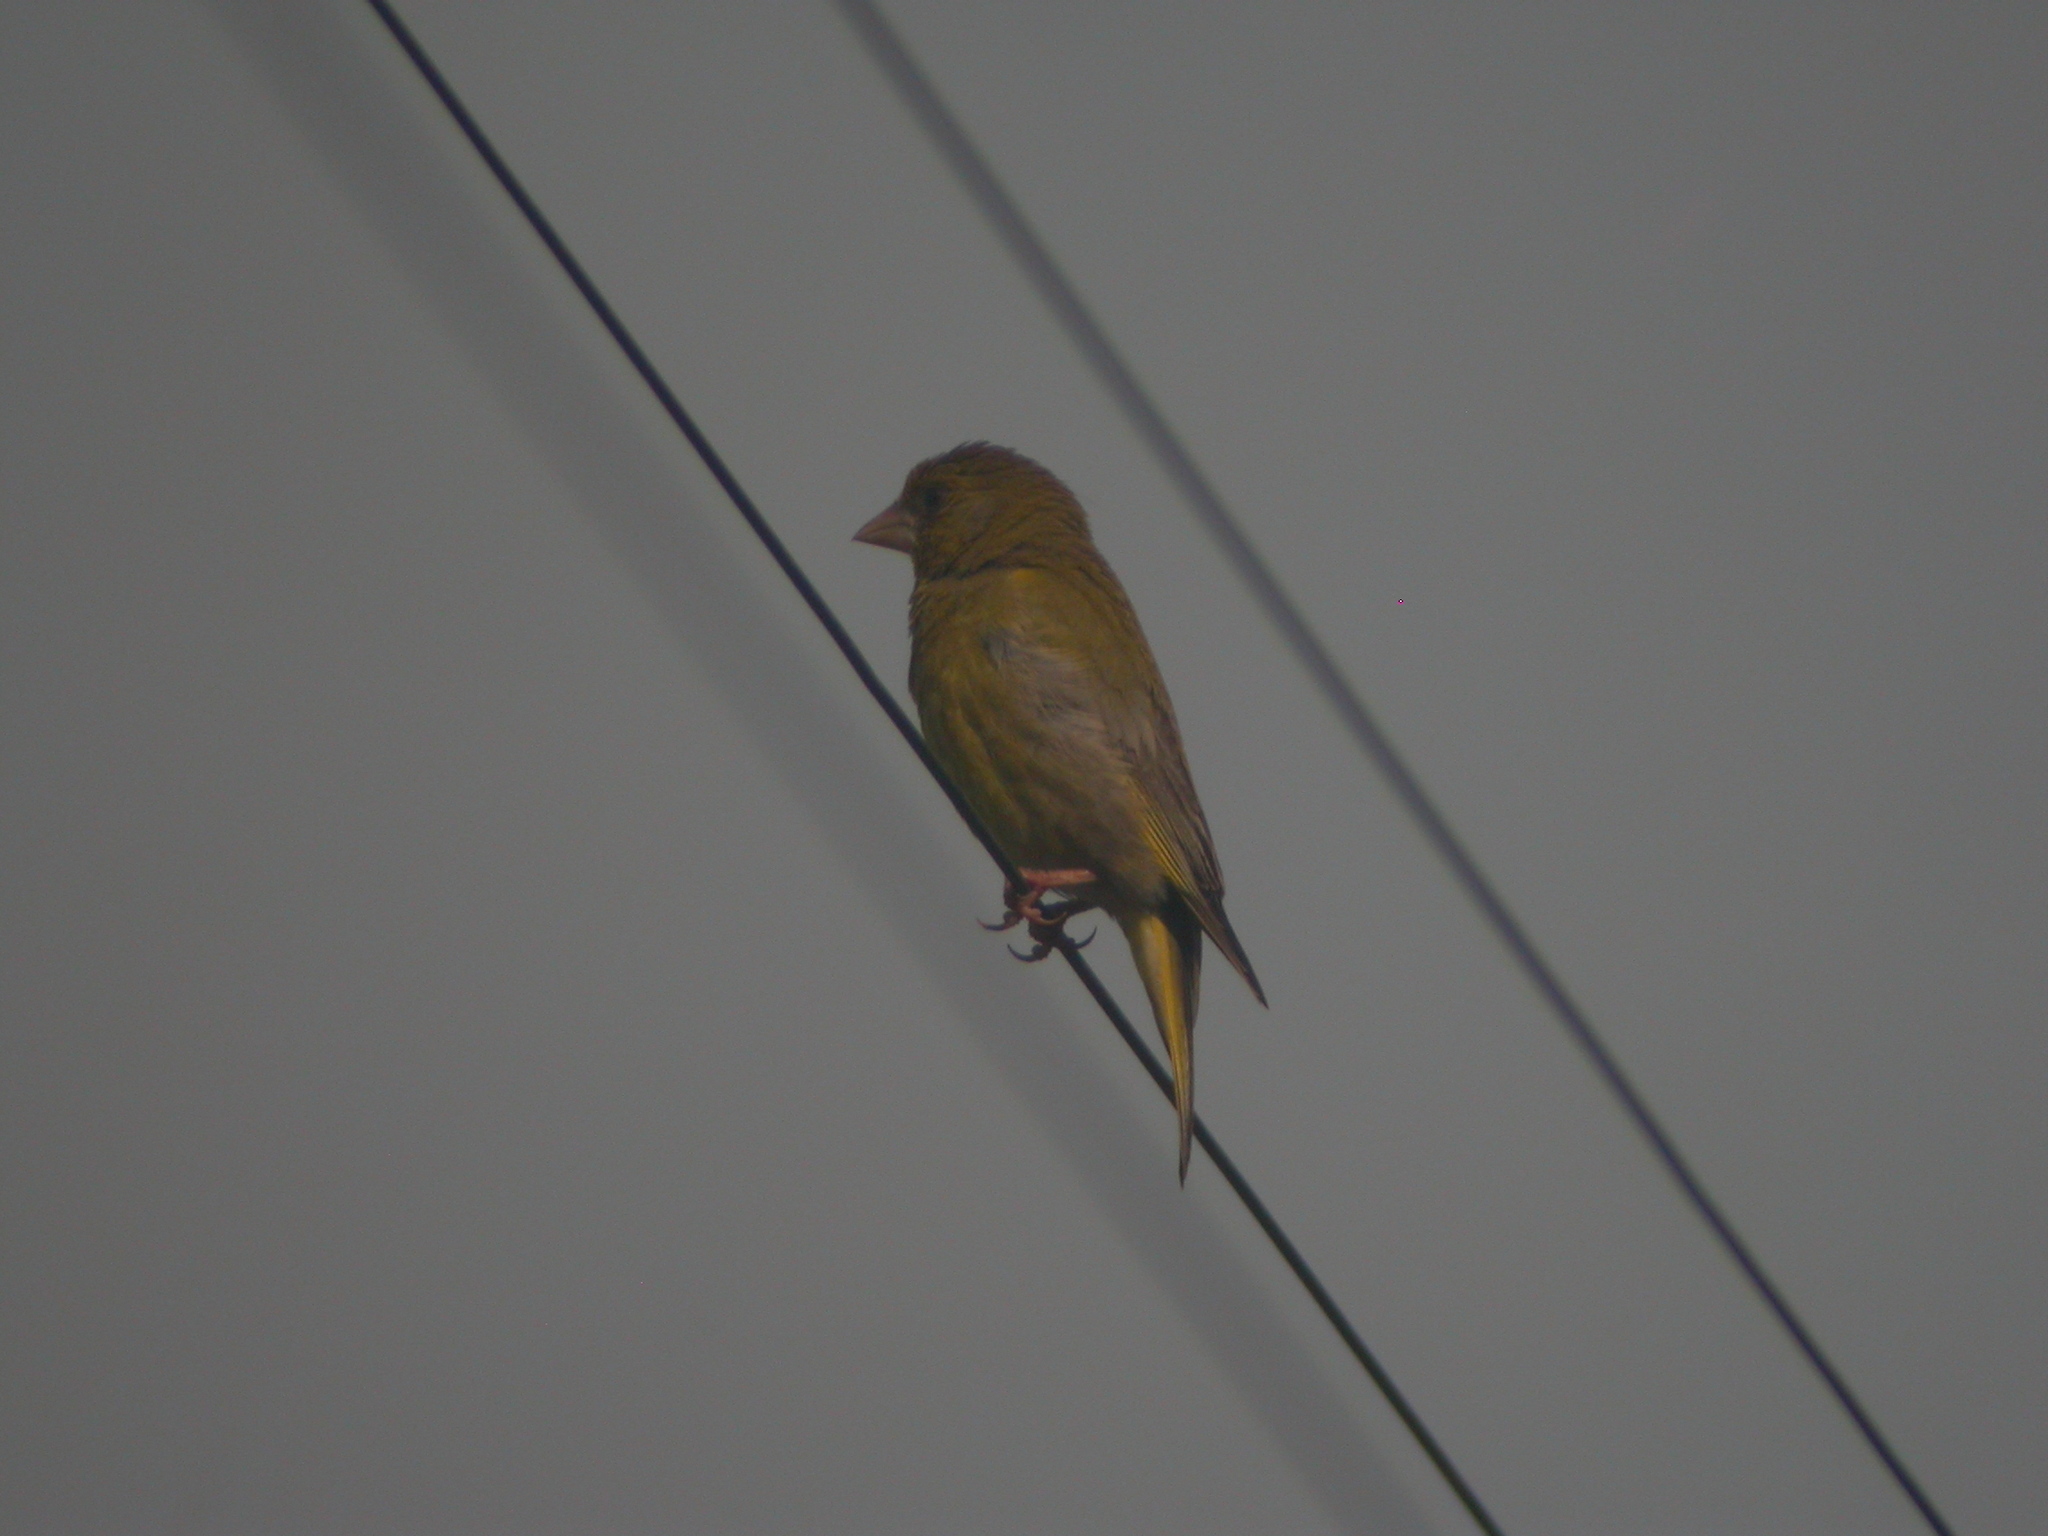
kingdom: Plantae
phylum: Tracheophyta
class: Liliopsida
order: Poales
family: Poaceae
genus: Chloris
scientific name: Chloris chloris
